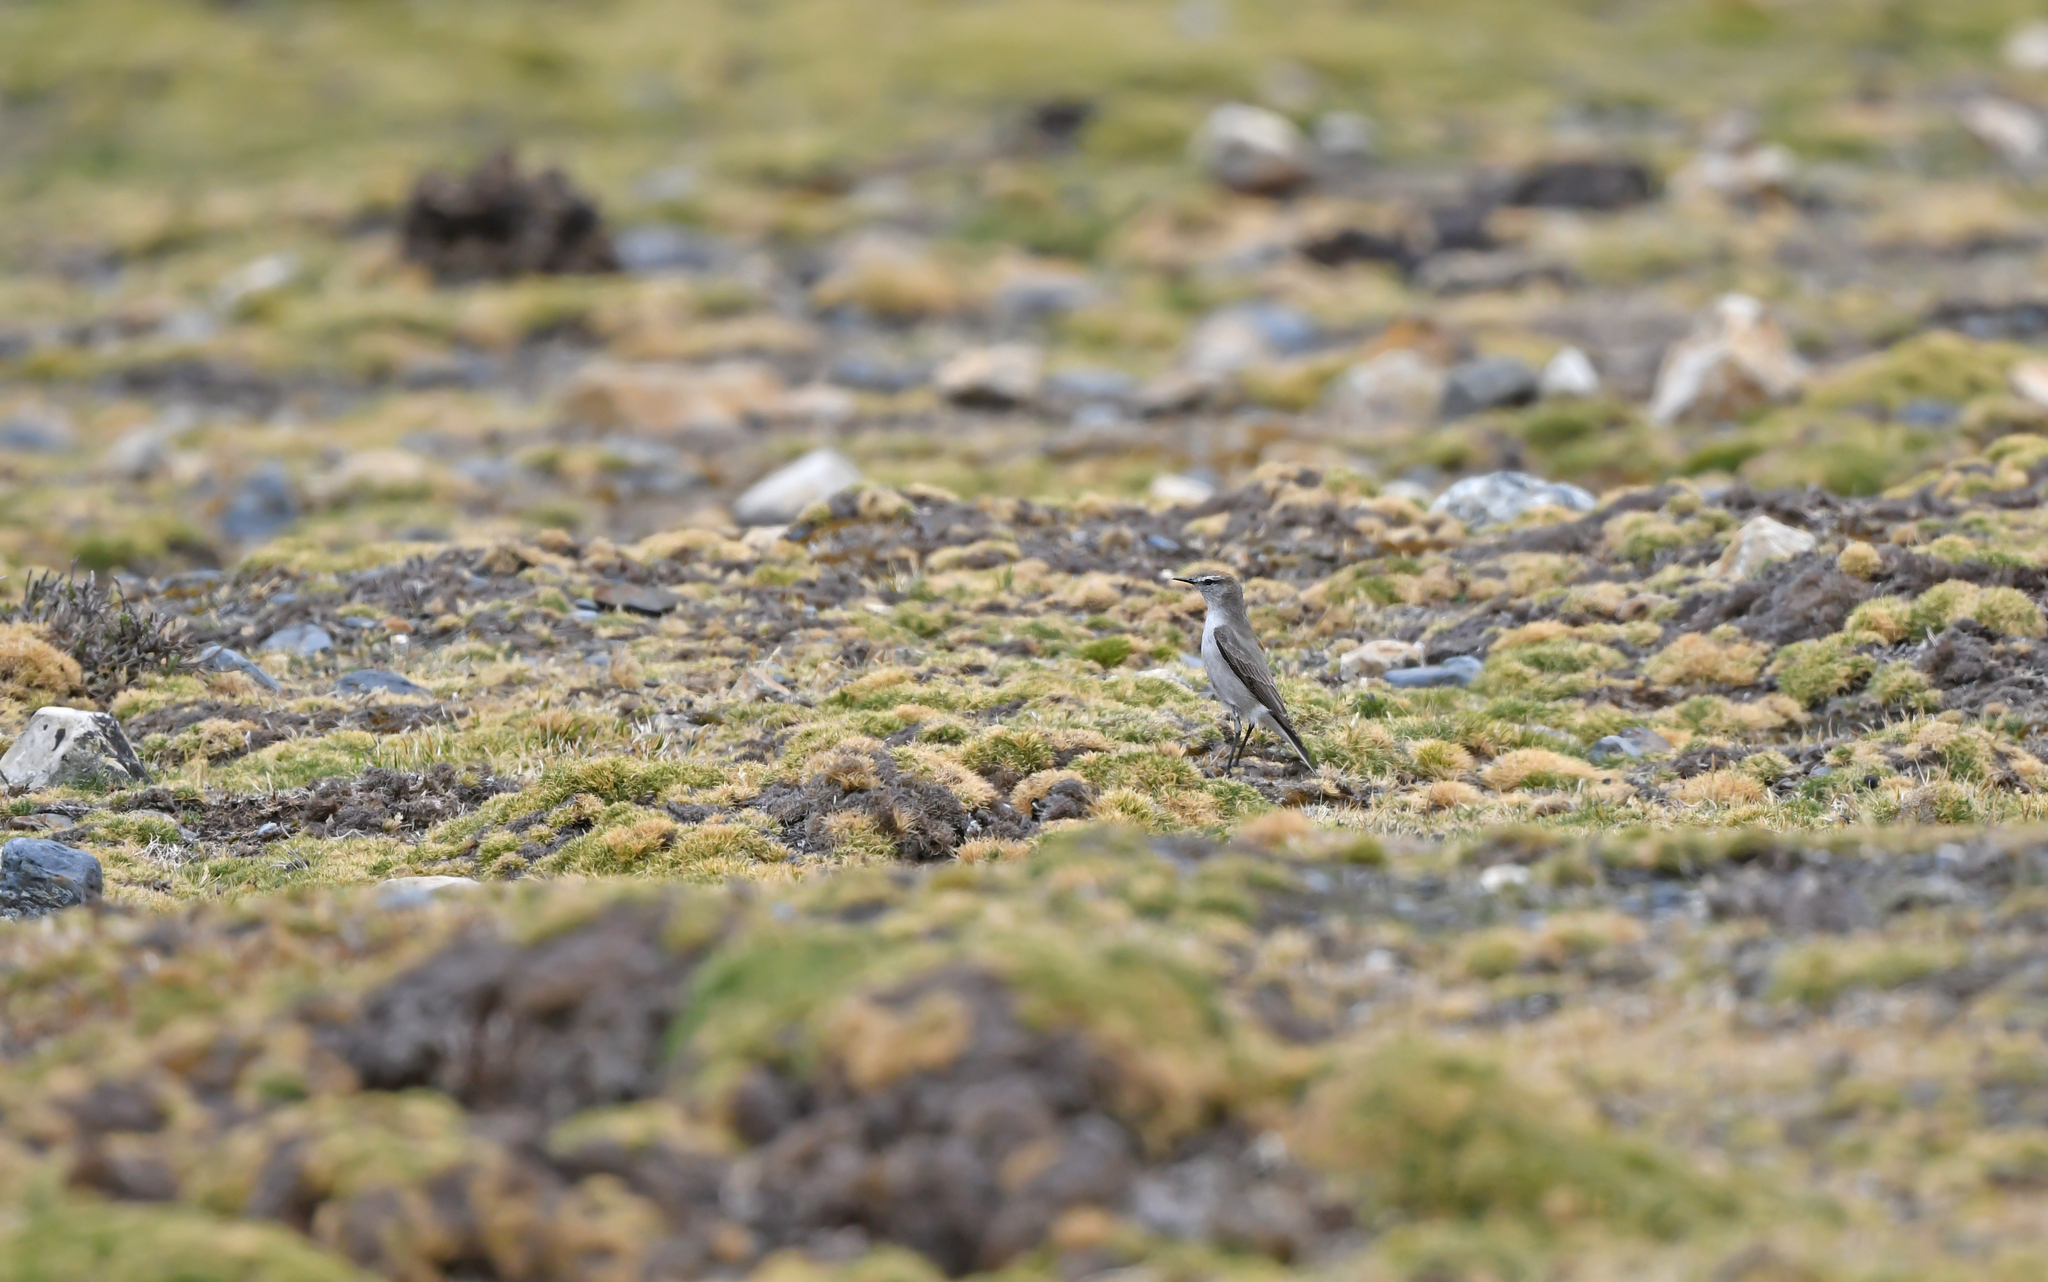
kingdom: Animalia
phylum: Chordata
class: Aves
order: Passeriformes
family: Tyrannidae
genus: Muscisaxicola
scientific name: Muscisaxicola albilora
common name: White-browed ground tyrant
